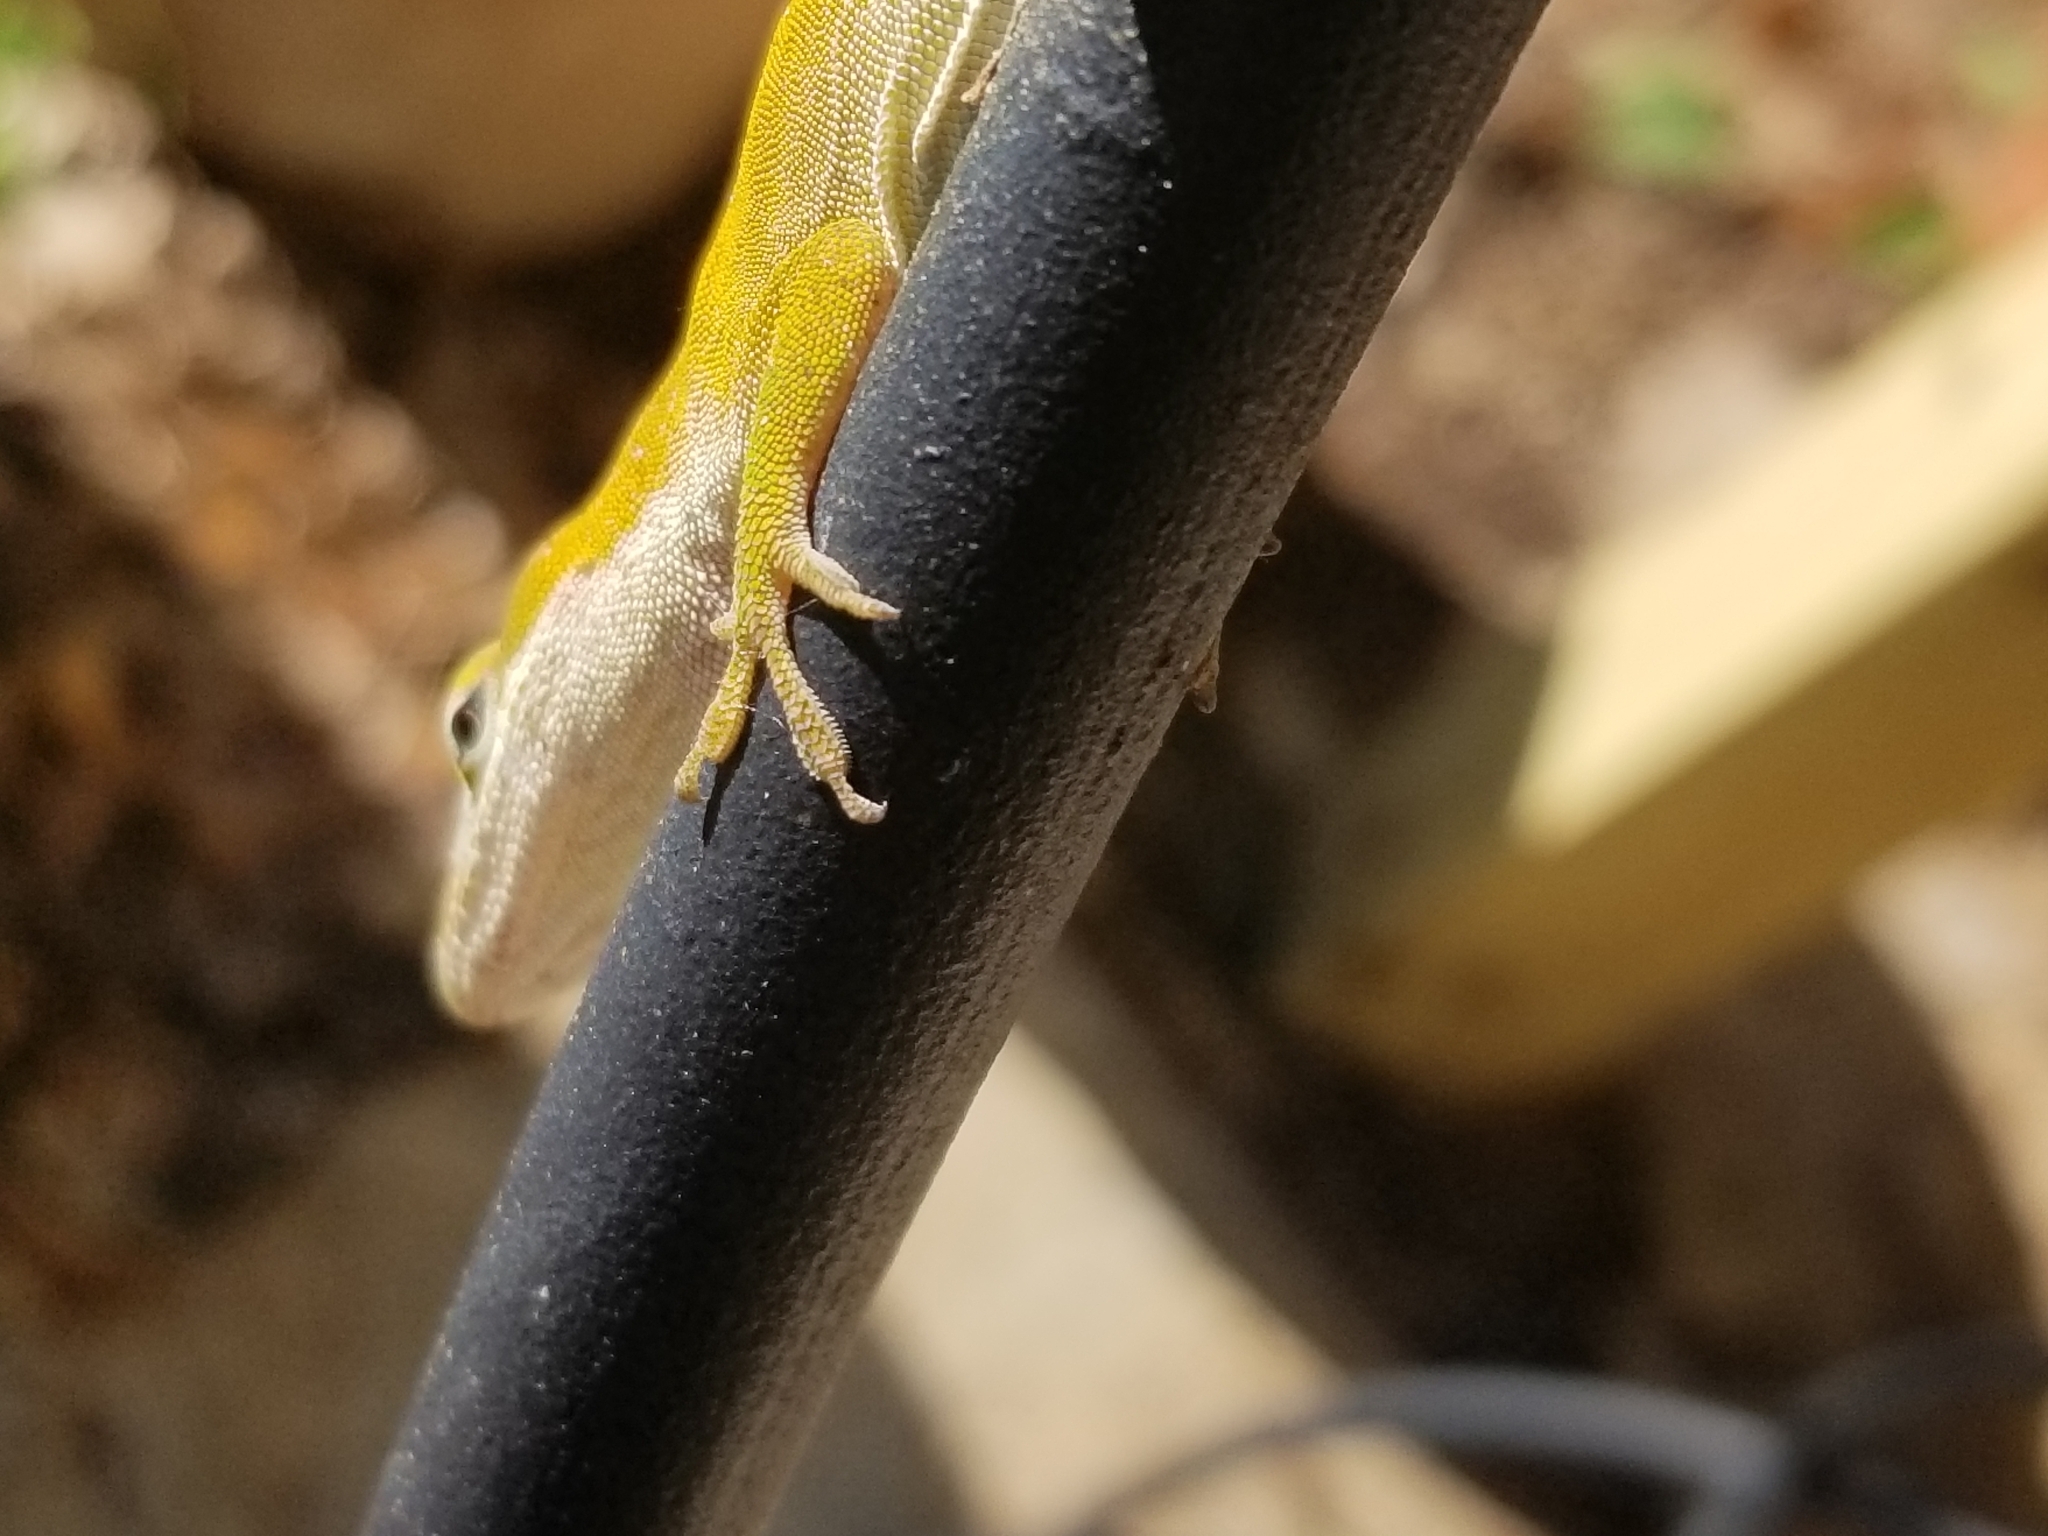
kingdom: Animalia
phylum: Chordata
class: Squamata
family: Dactyloidae
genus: Anolis
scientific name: Anolis carolinensis
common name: Green anole
